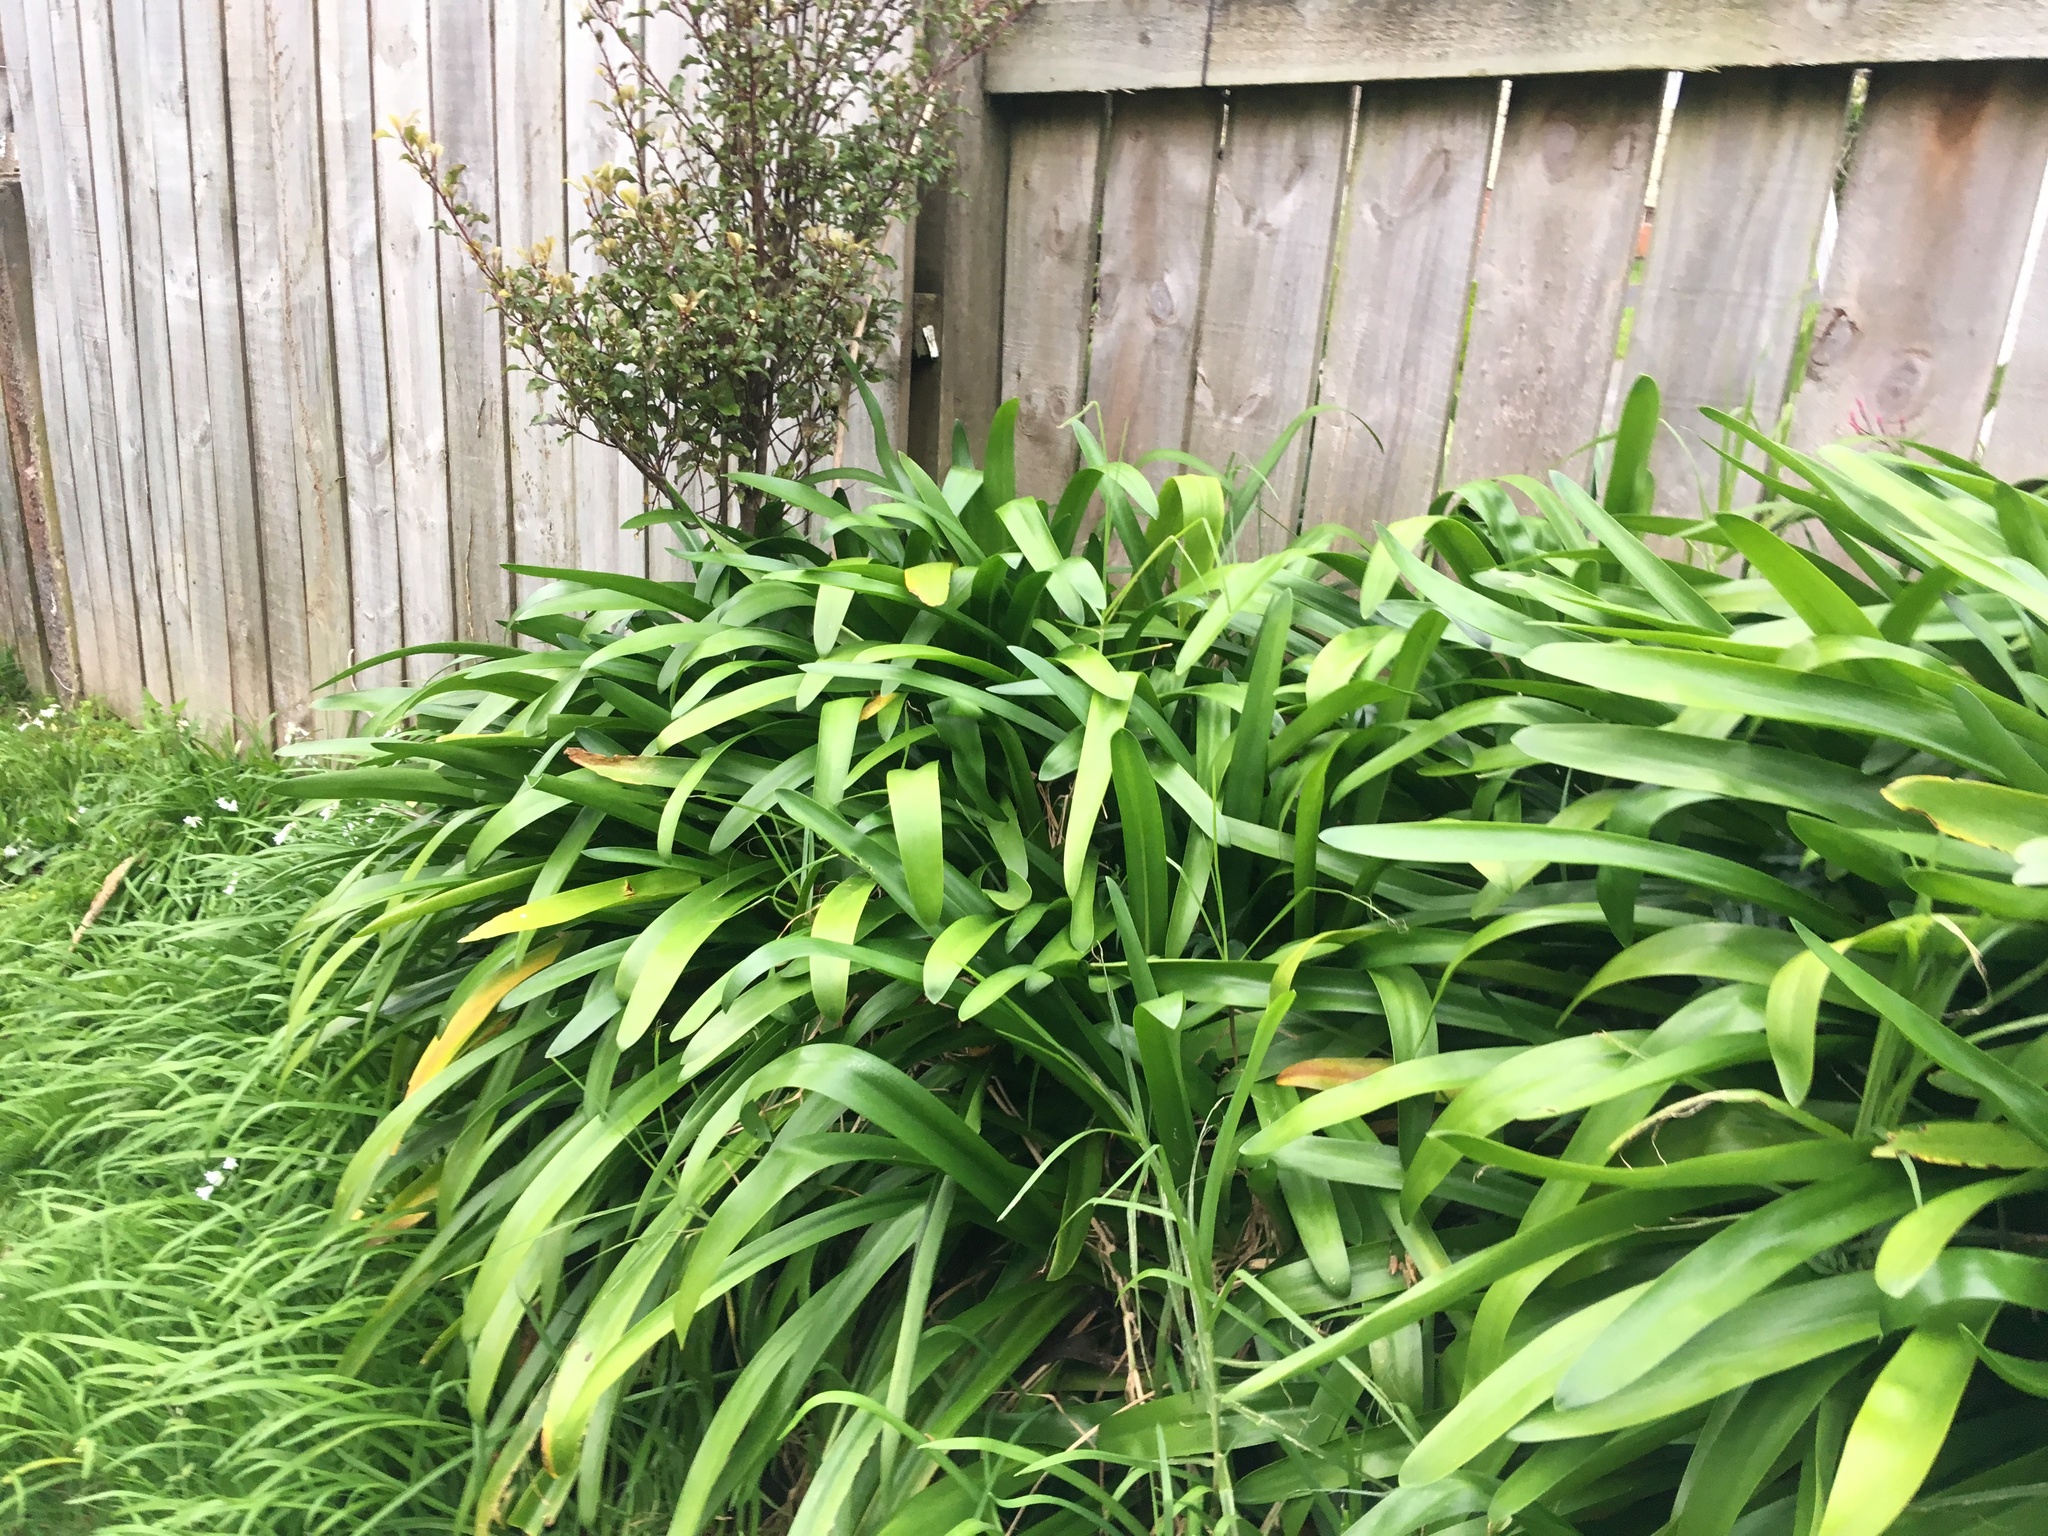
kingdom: Plantae
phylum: Tracheophyta
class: Liliopsida
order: Asparagales
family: Amaryllidaceae
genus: Agapanthus
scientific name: Agapanthus praecox
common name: African-lily
